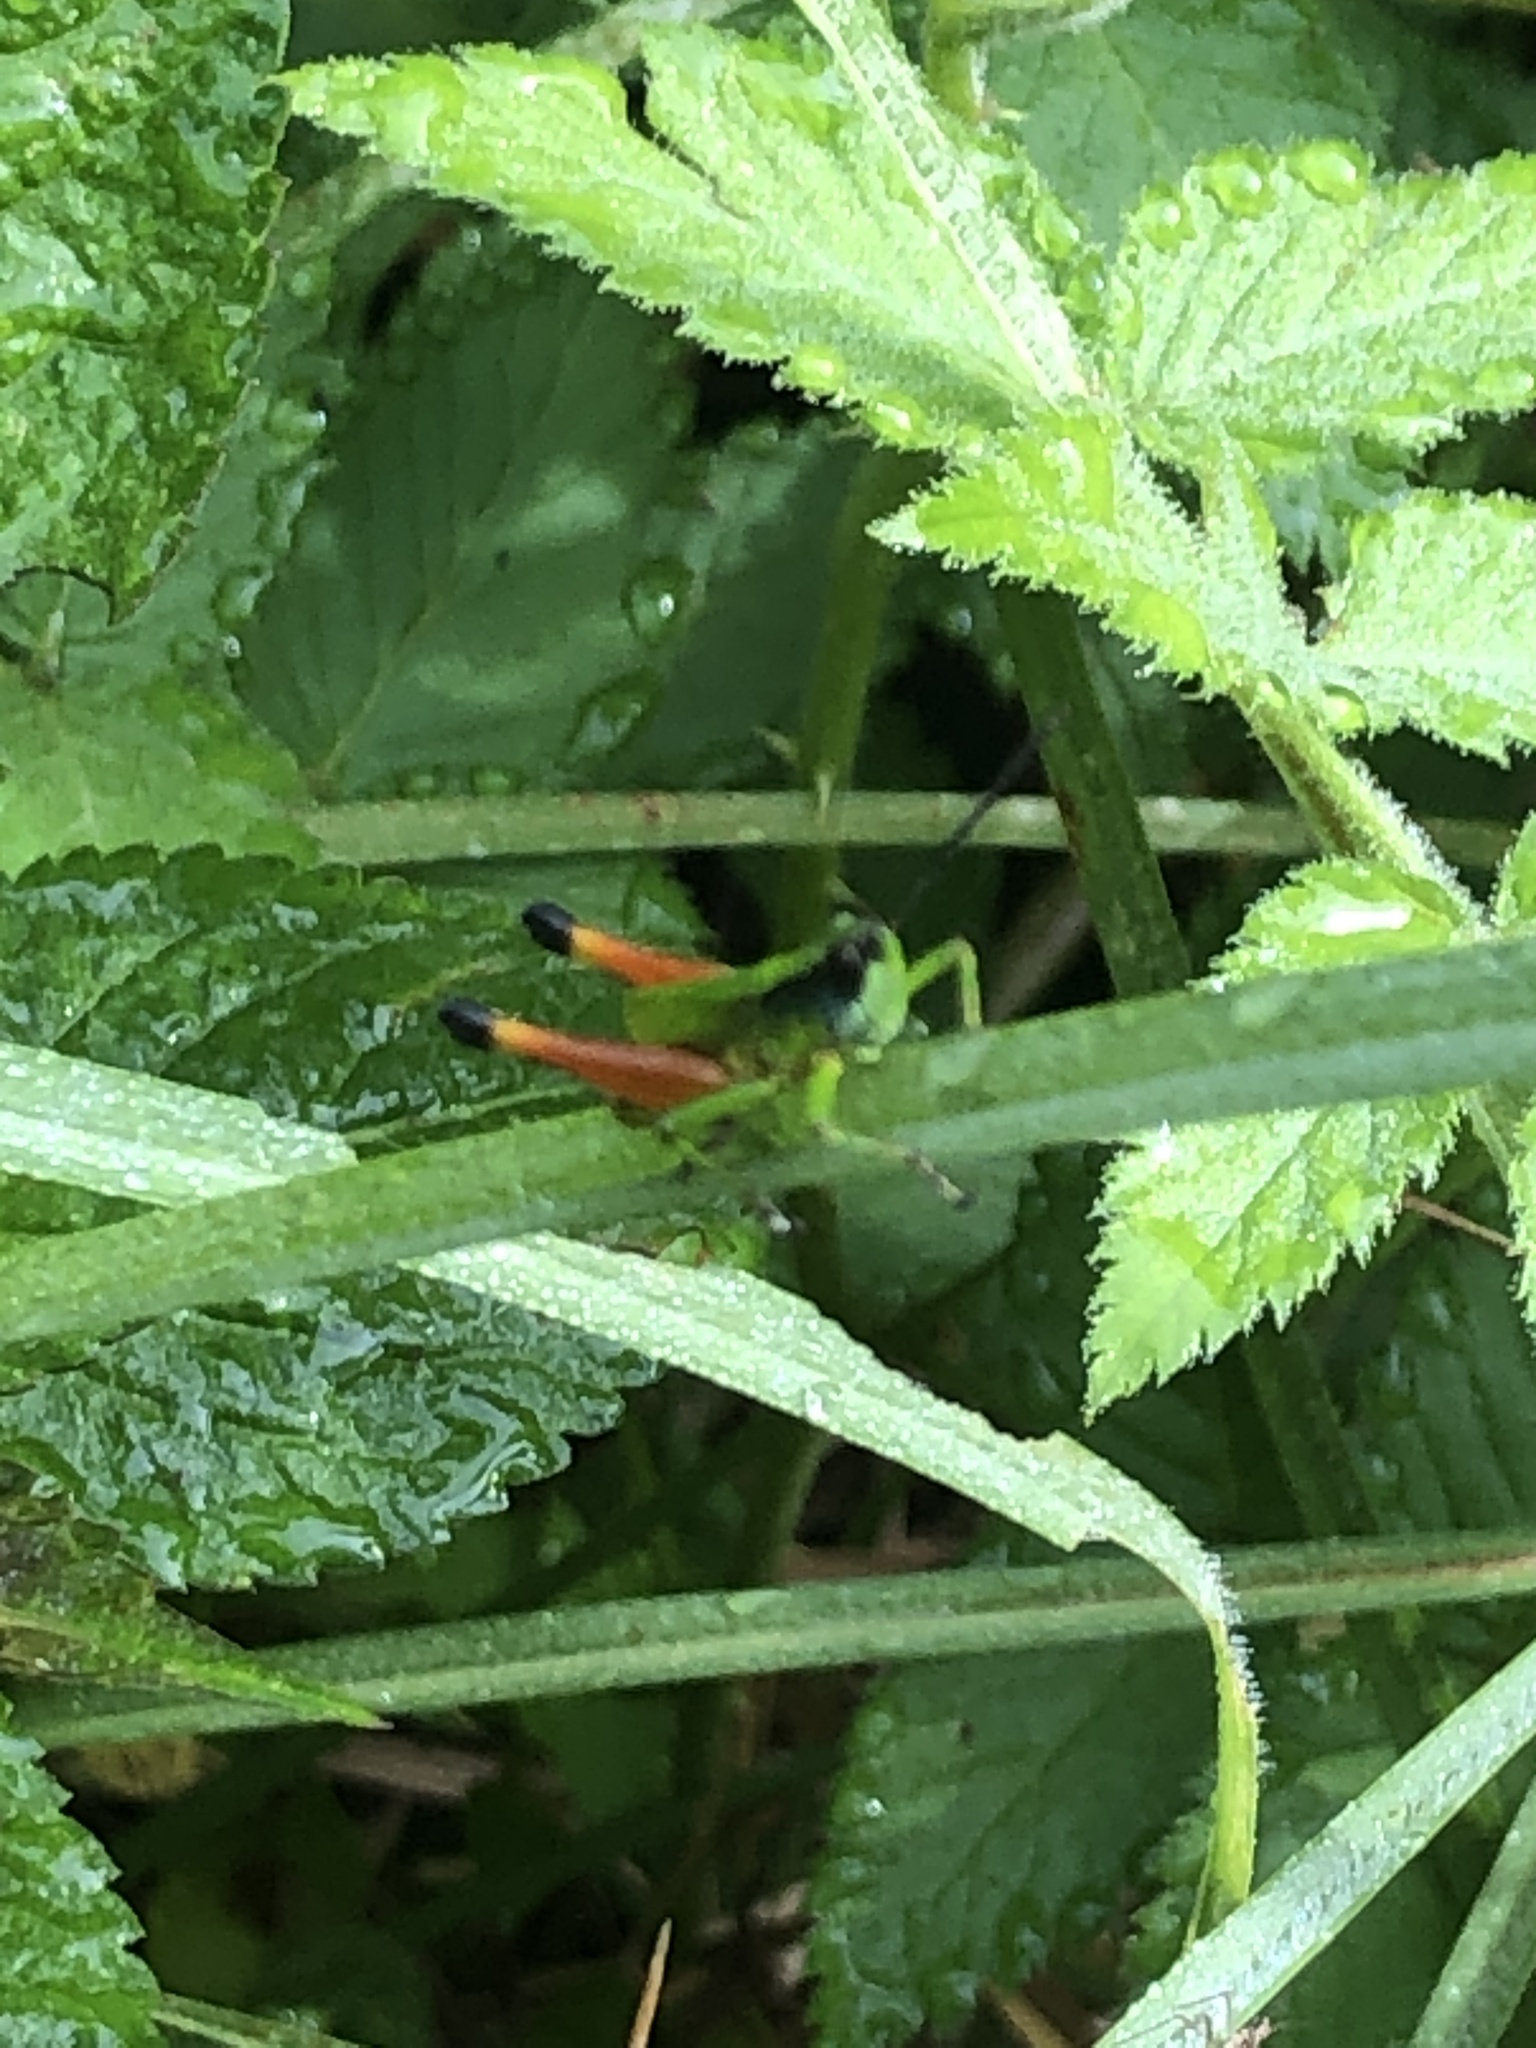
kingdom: Animalia
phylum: Arthropoda
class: Insecta
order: Orthoptera
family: Acrididae
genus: Phaneroturis
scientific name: Phaneroturis cupido
